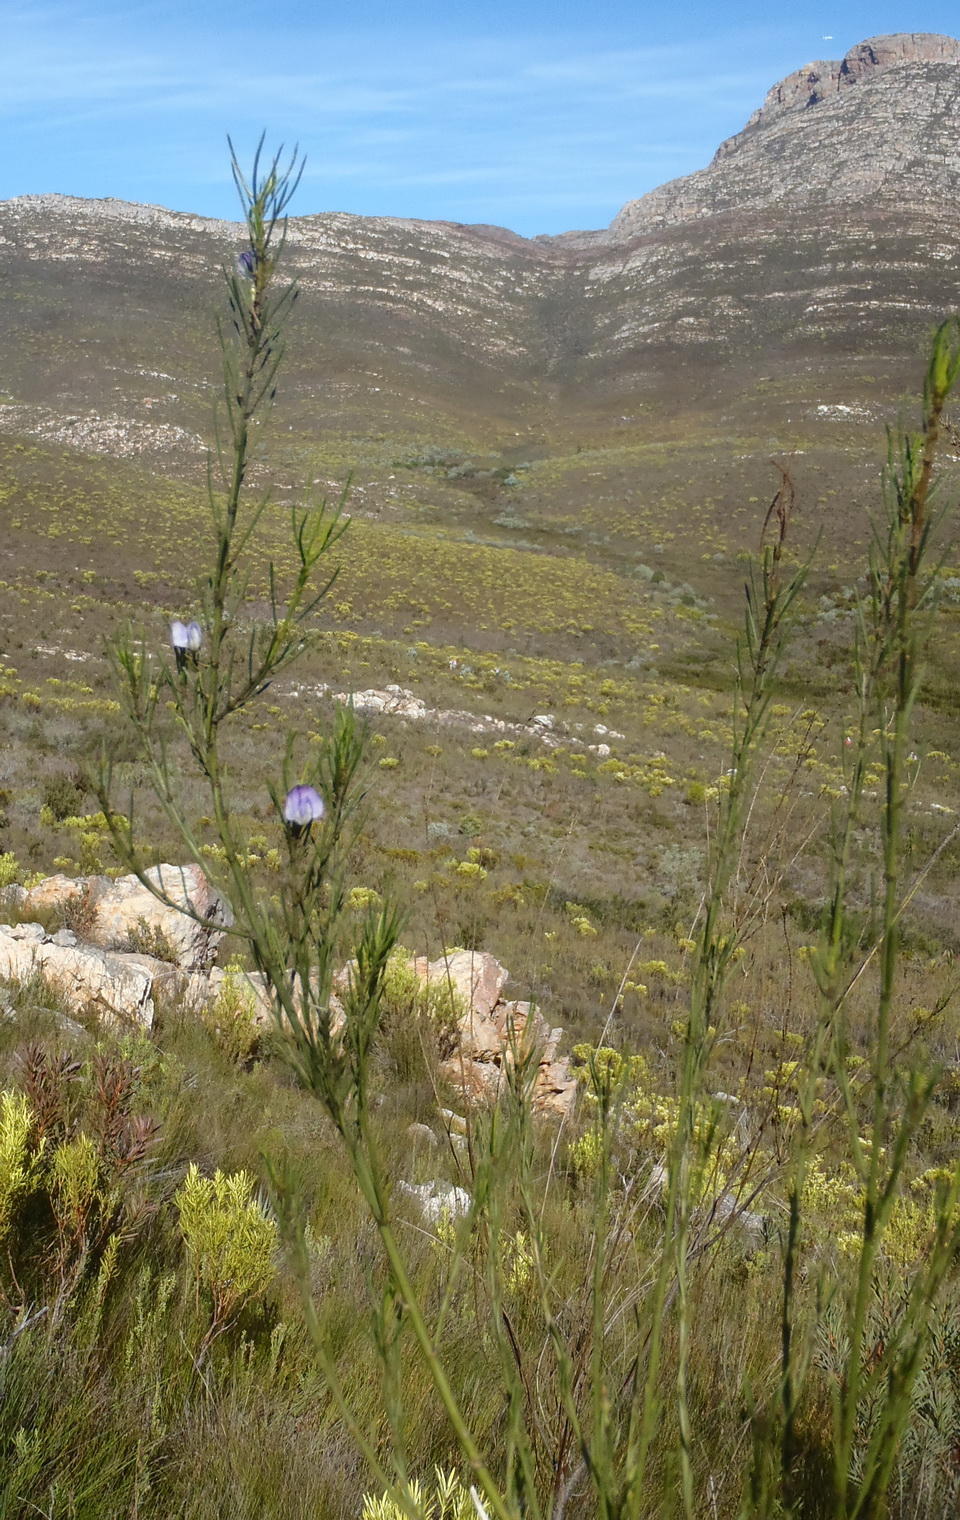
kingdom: Plantae
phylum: Tracheophyta
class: Magnoliopsida
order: Fabales
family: Fabaceae
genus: Psoralea
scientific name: Psoralea diturnerae
